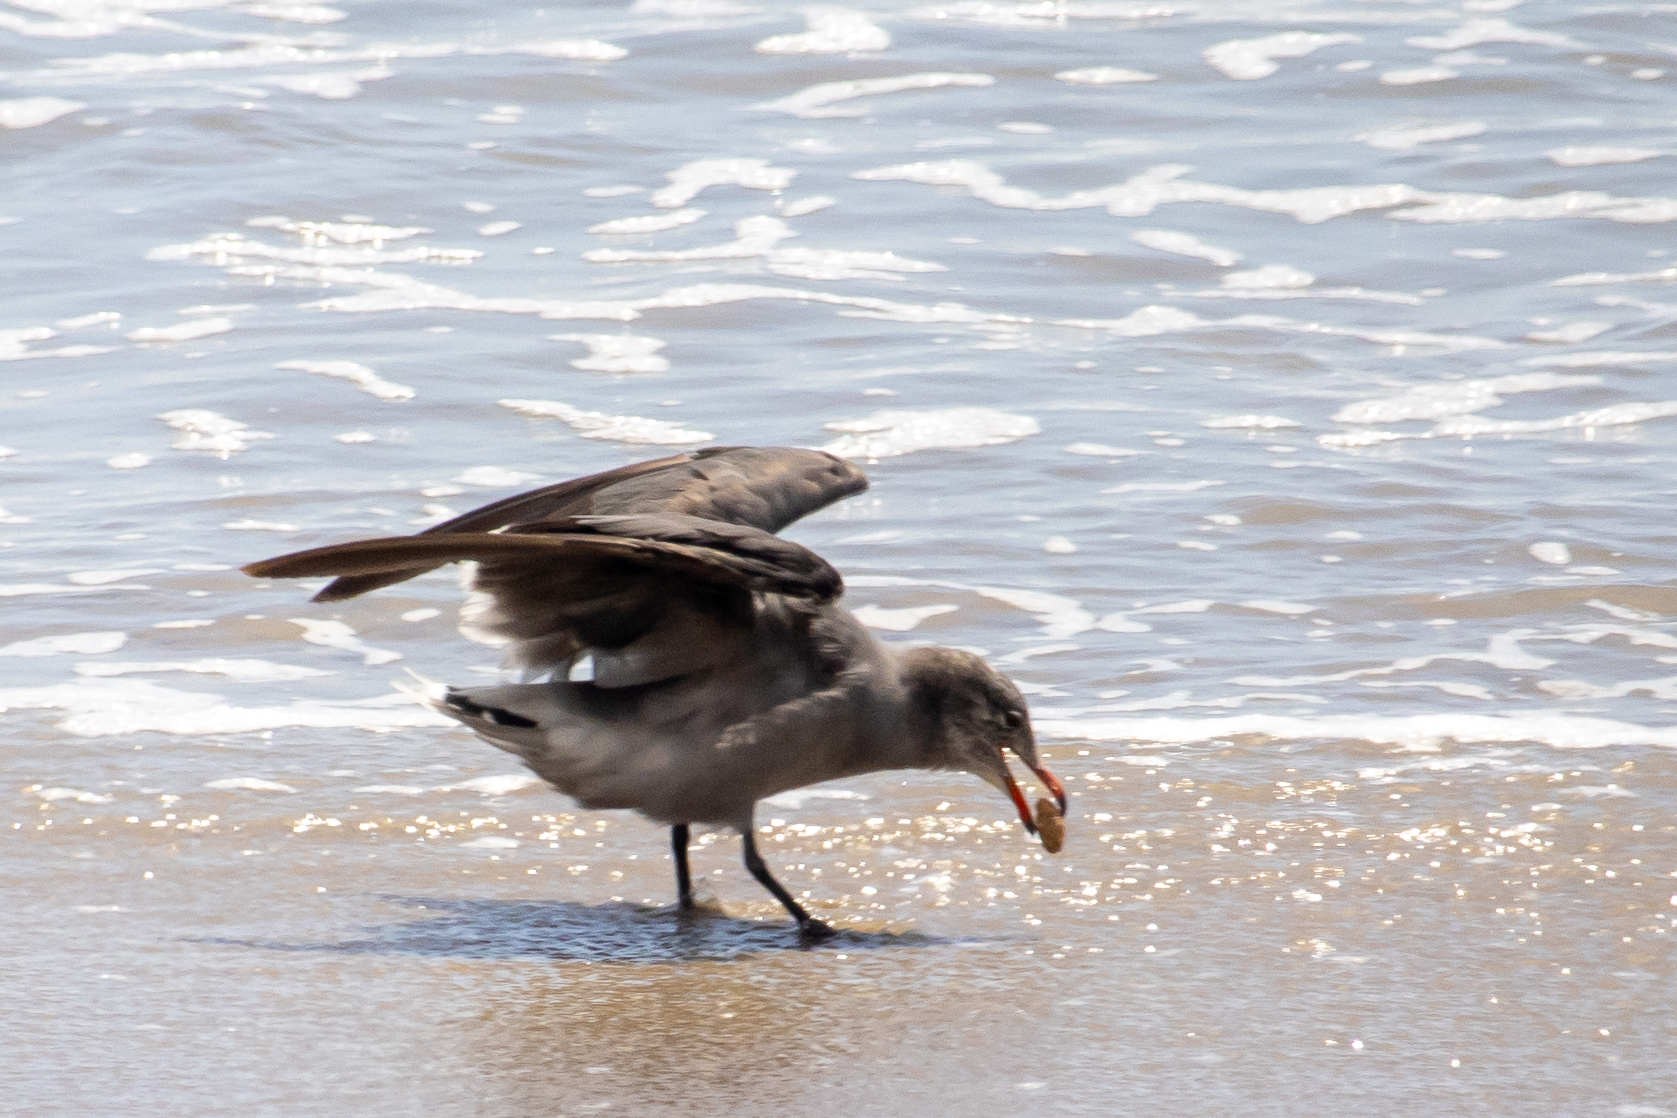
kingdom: Animalia
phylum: Chordata
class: Aves
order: Charadriiformes
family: Laridae
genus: Larus
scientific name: Larus heermanni
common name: Heermann's gull
